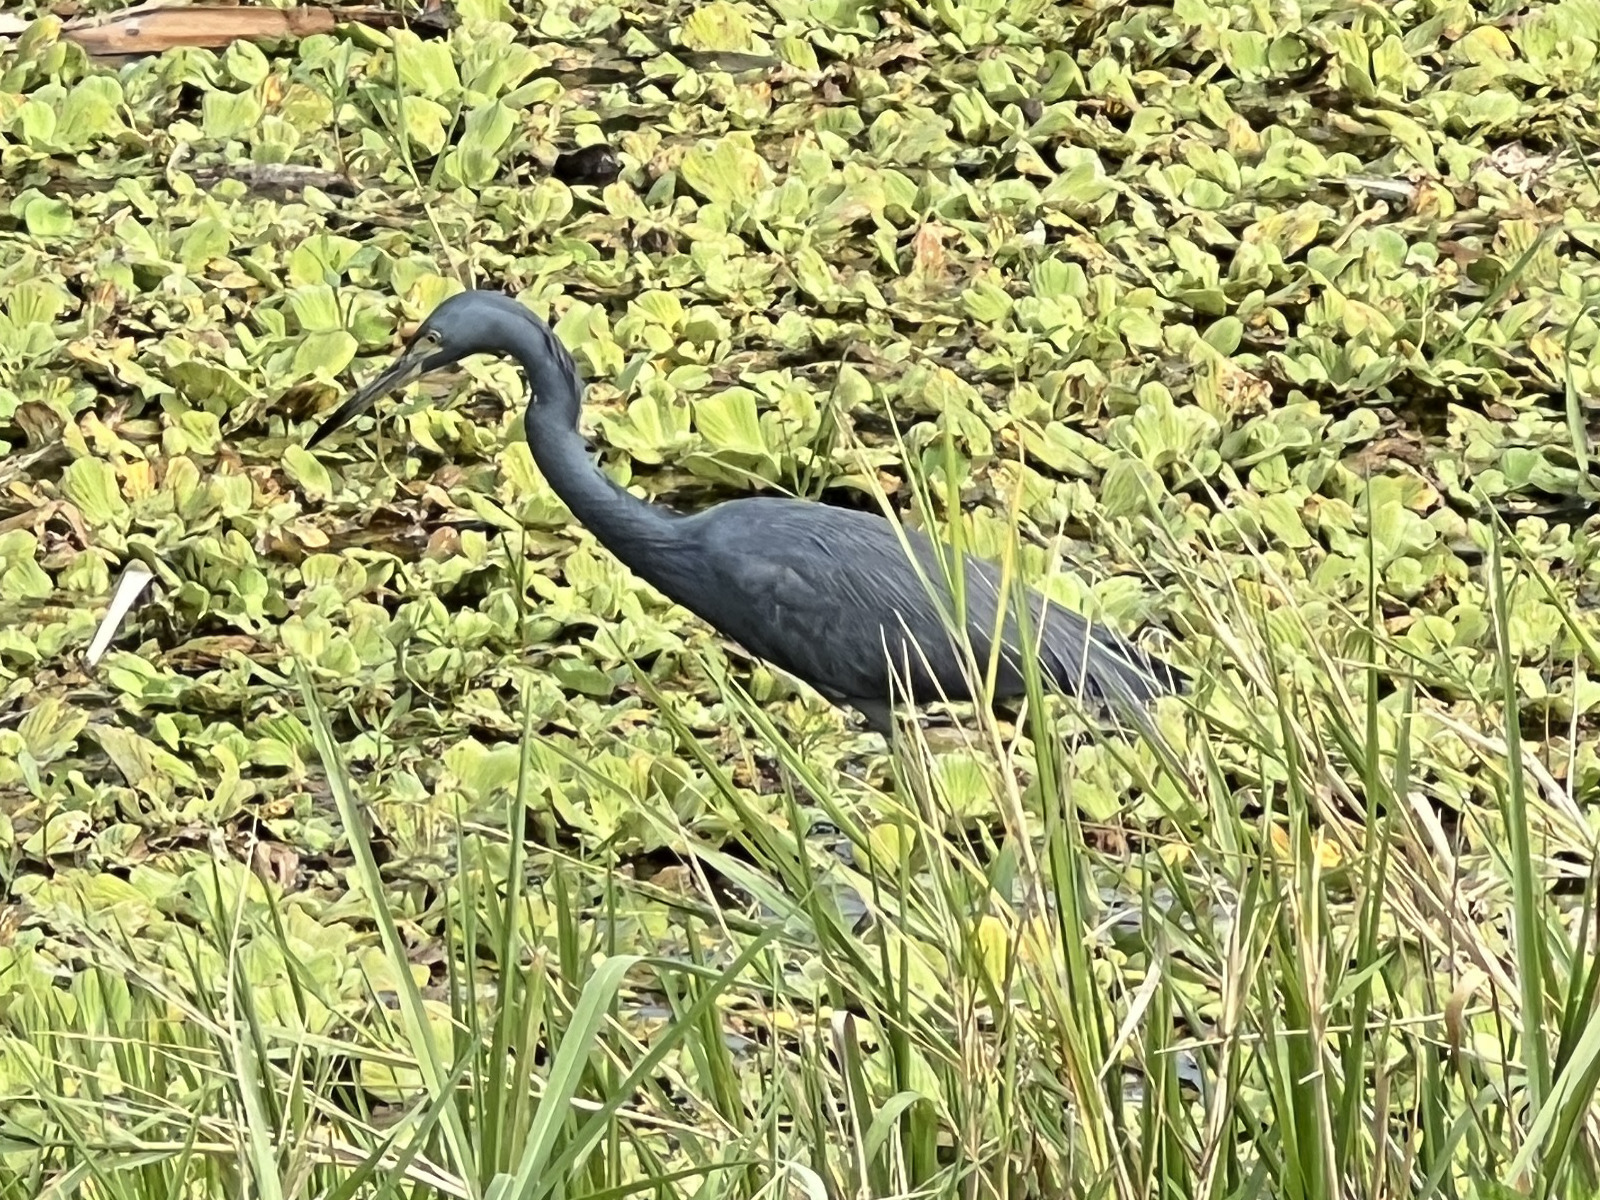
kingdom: Animalia
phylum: Chordata
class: Aves
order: Pelecaniformes
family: Ardeidae
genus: Egretta
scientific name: Egretta caerulea
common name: Little blue heron
